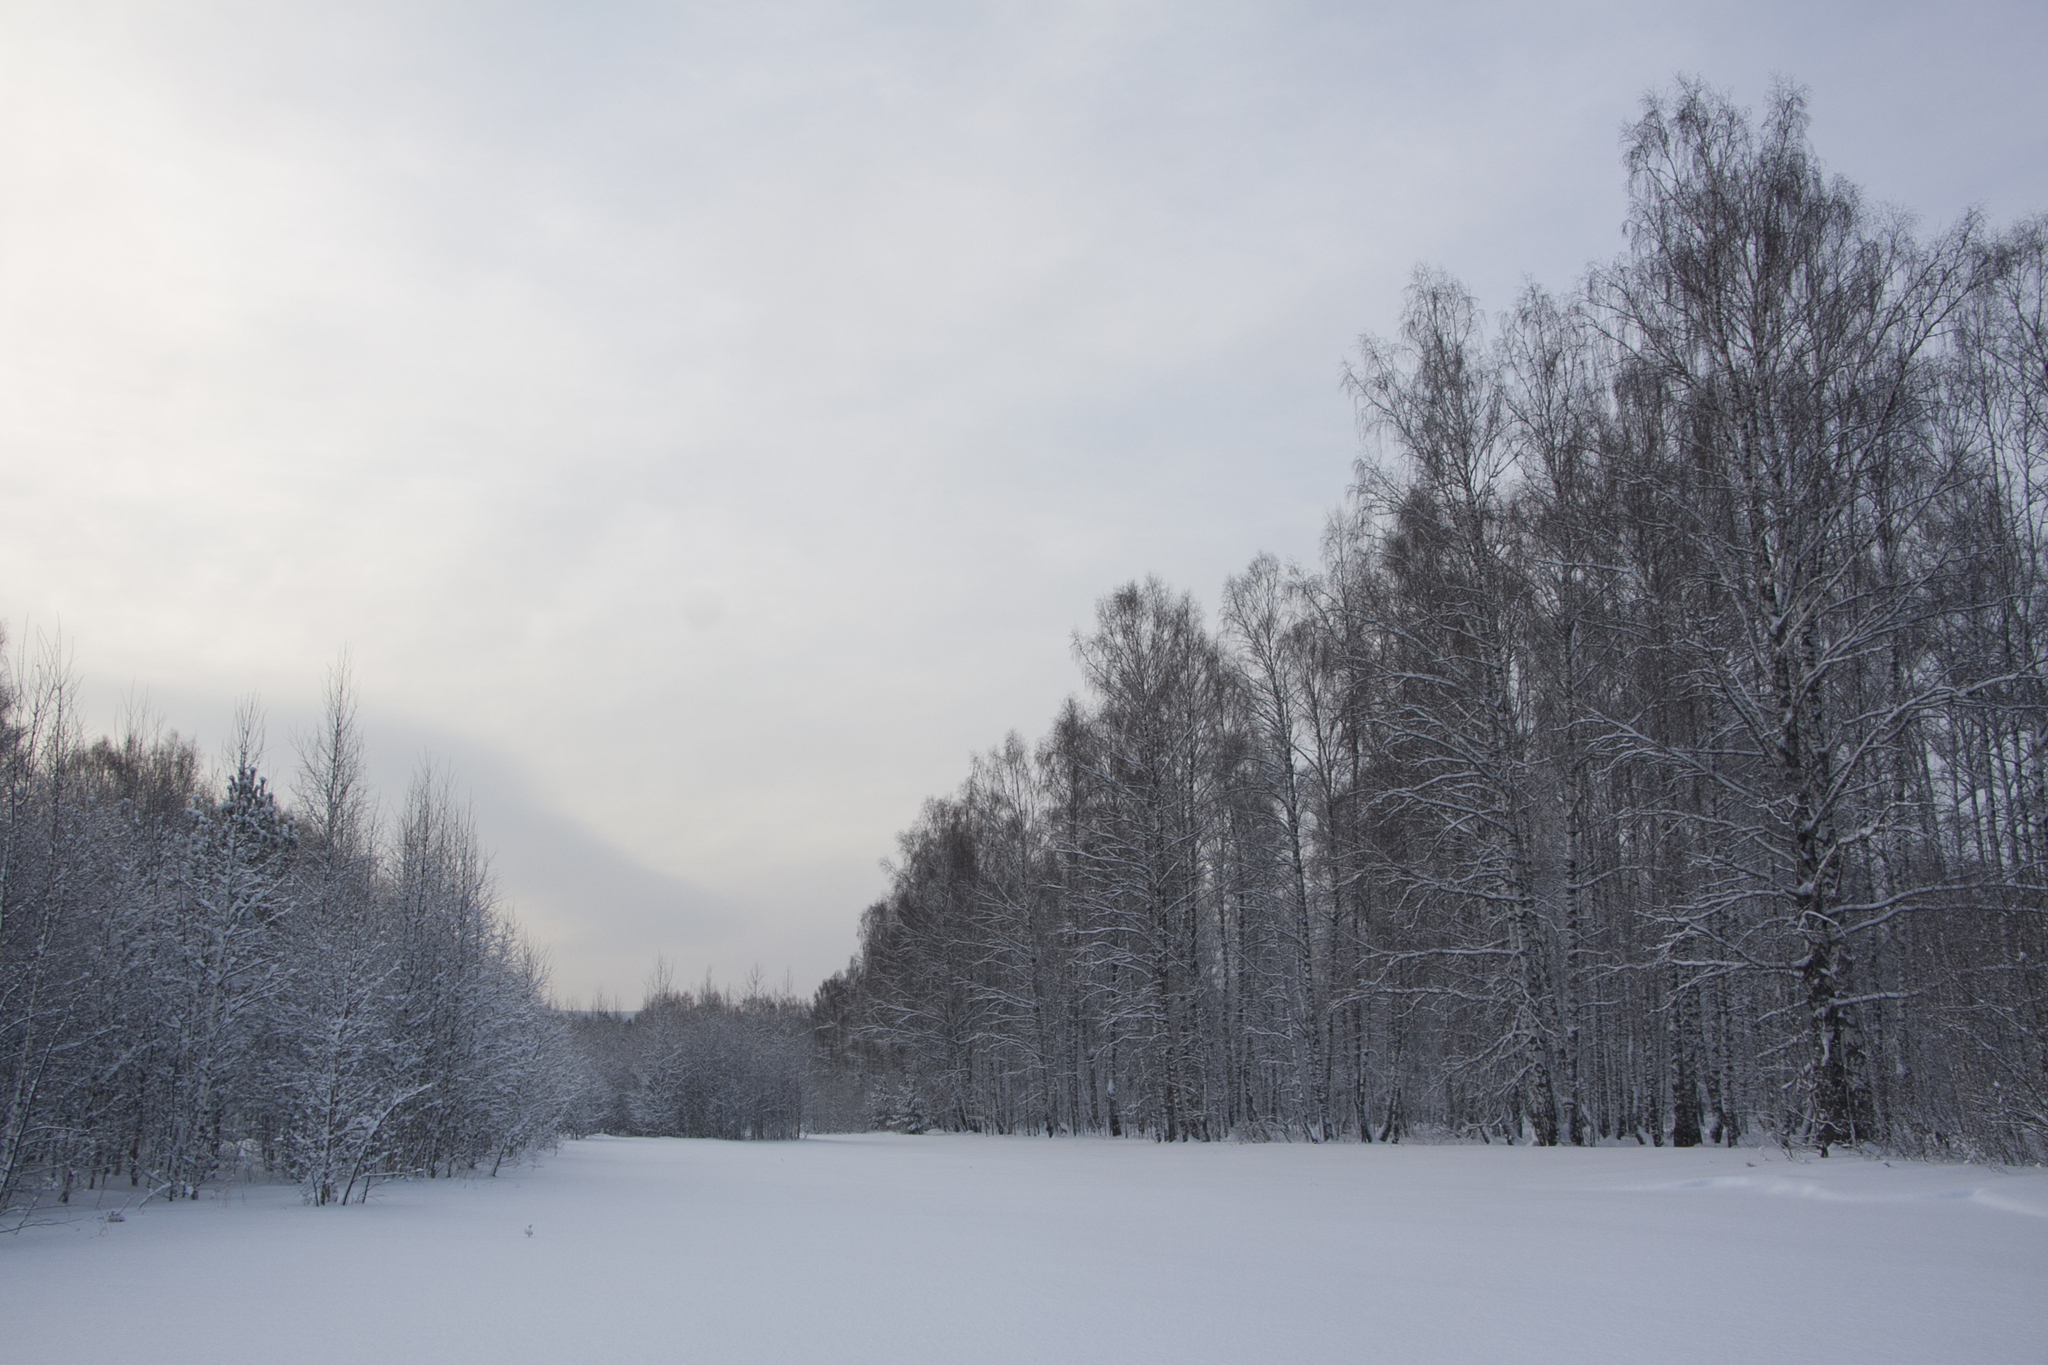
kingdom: Plantae
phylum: Tracheophyta
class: Magnoliopsida
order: Fagales
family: Betulaceae
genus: Betula
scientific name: Betula pendula
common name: Silver birch
